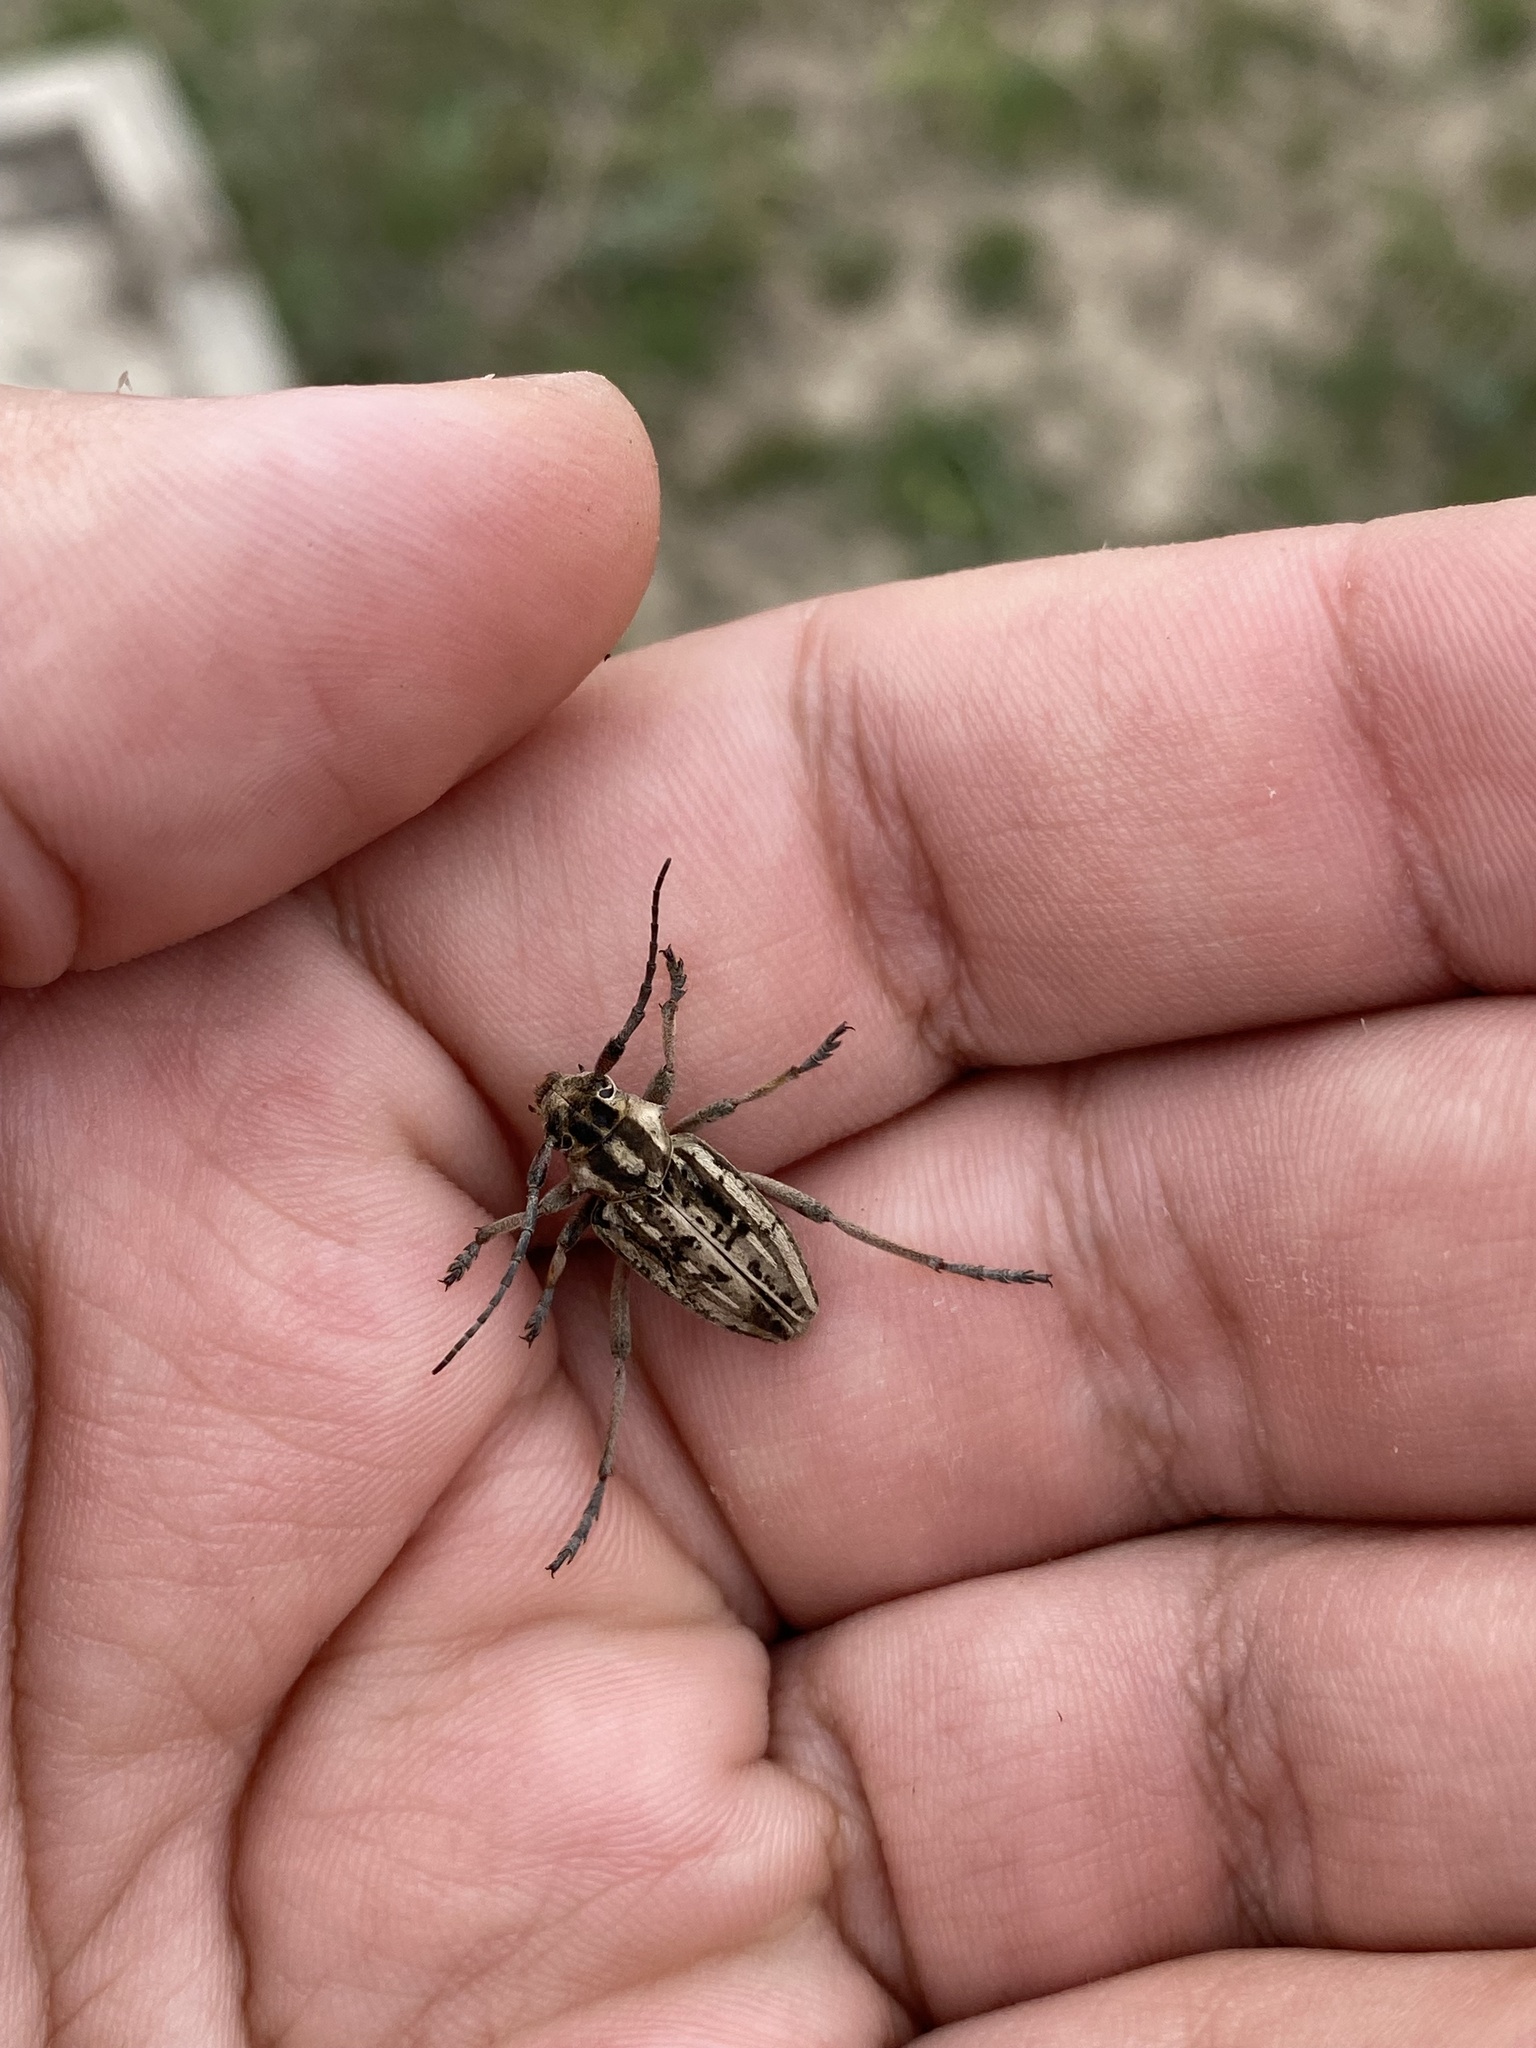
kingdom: Animalia
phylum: Arthropoda
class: Insecta
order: Coleoptera
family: Cerambycidae
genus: Dorcadion
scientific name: Dorcadion tschitscherini
